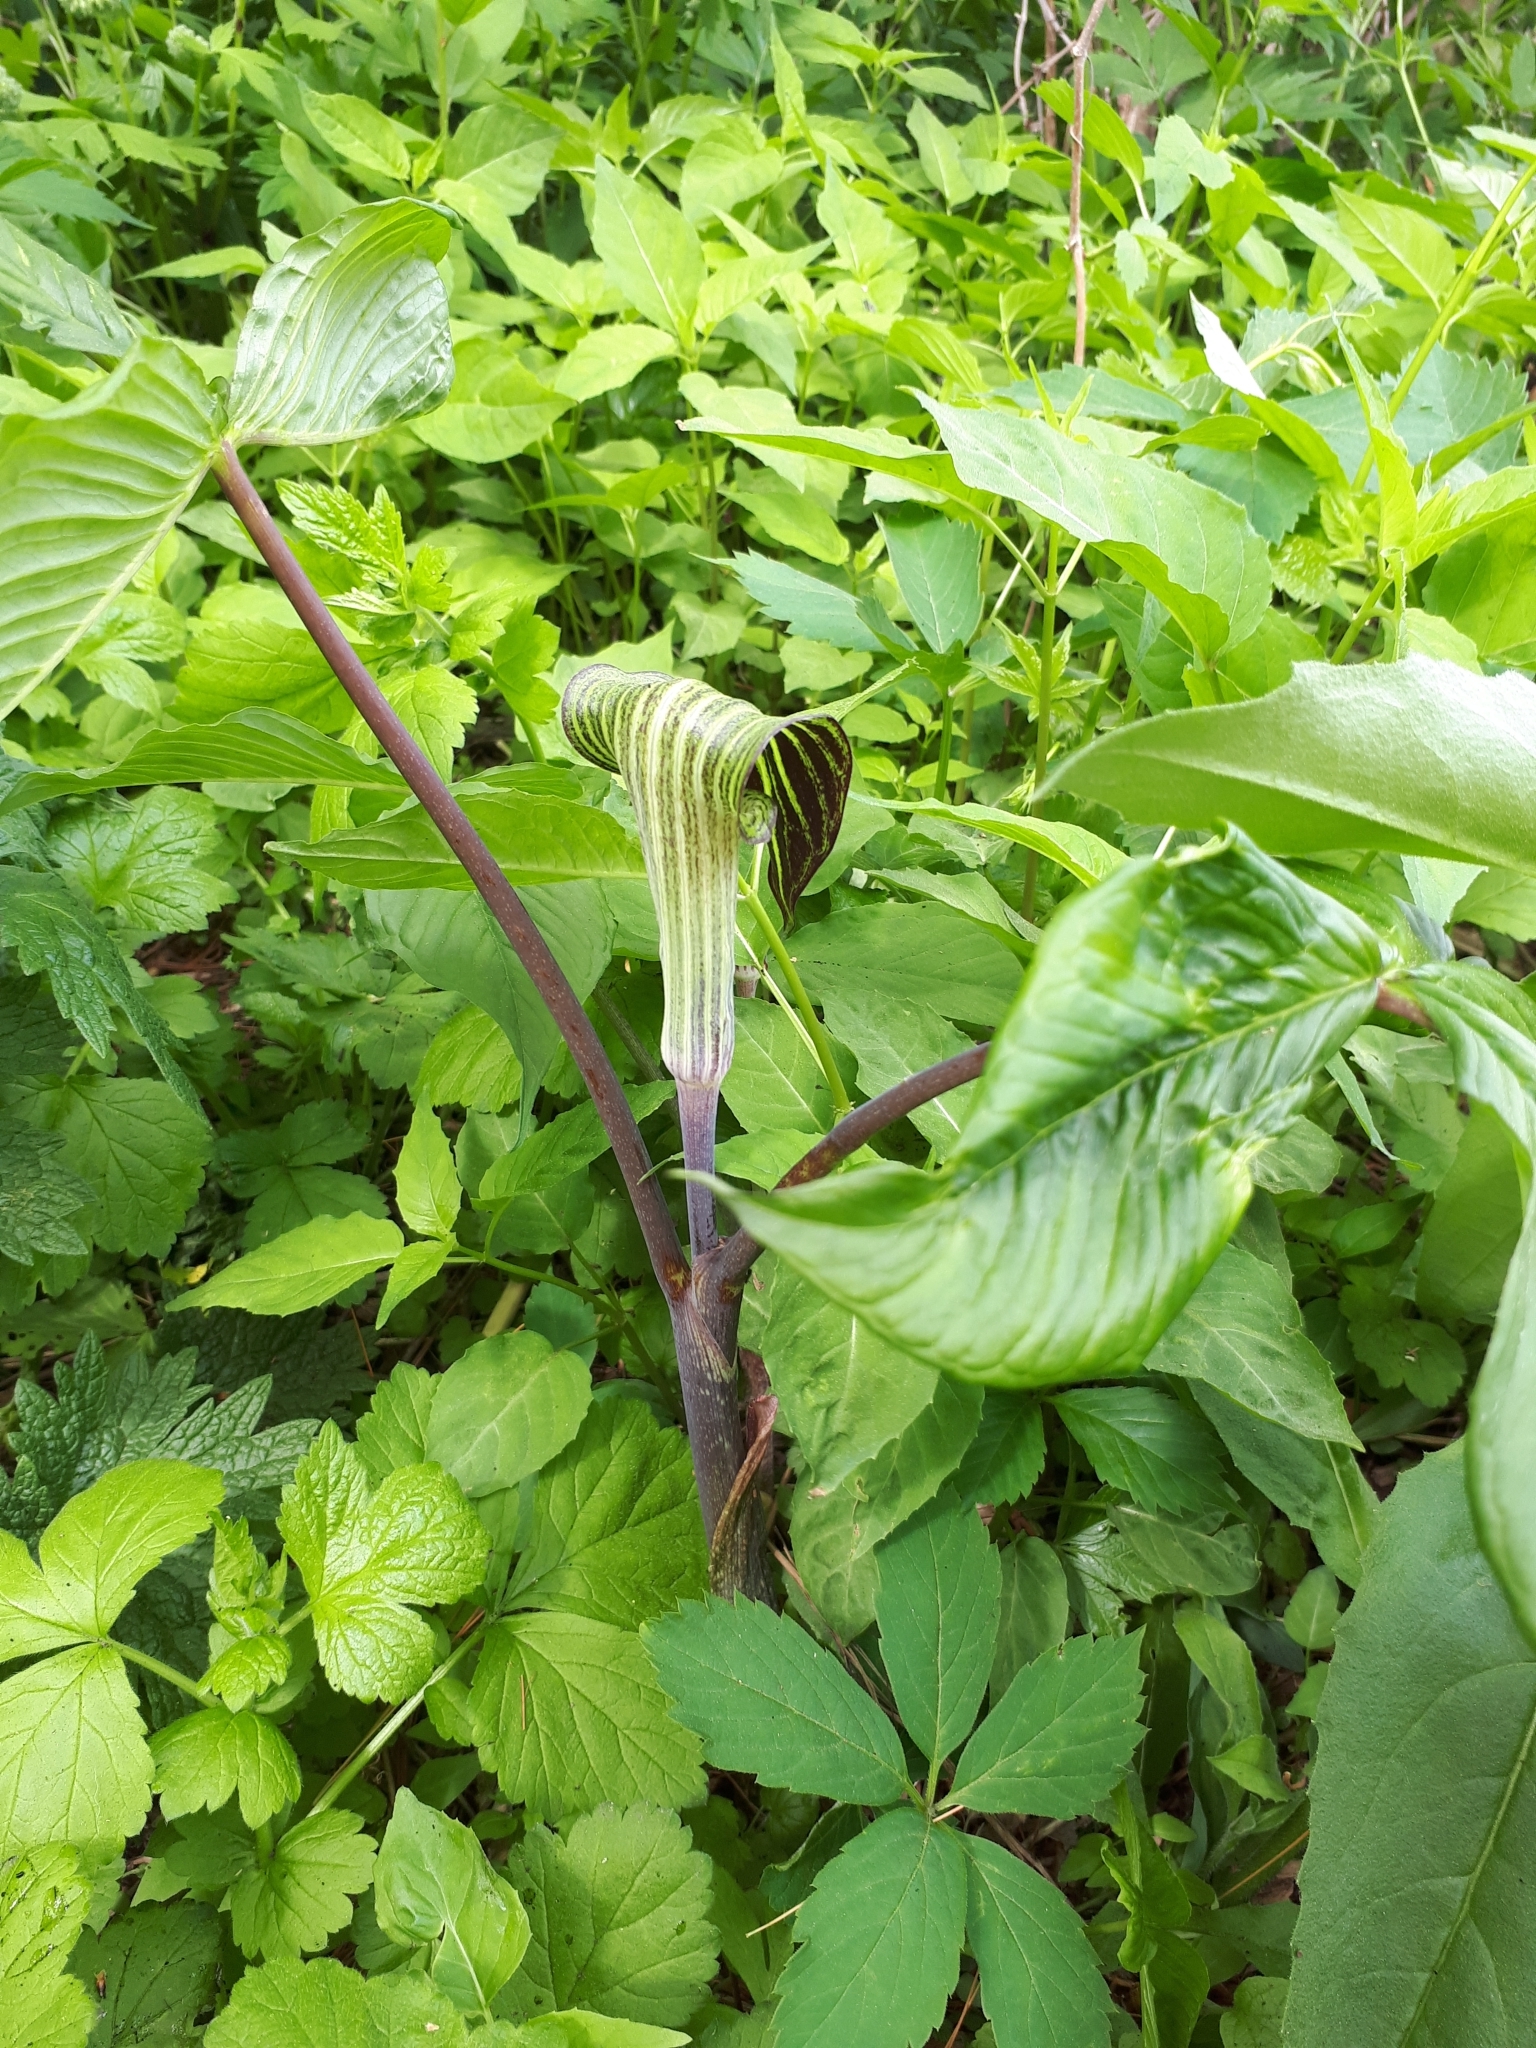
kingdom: Plantae
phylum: Tracheophyta
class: Liliopsida
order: Alismatales
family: Araceae
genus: Arisaema
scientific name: Arisaema triphyllum
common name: Jack-in-the-pulpit
